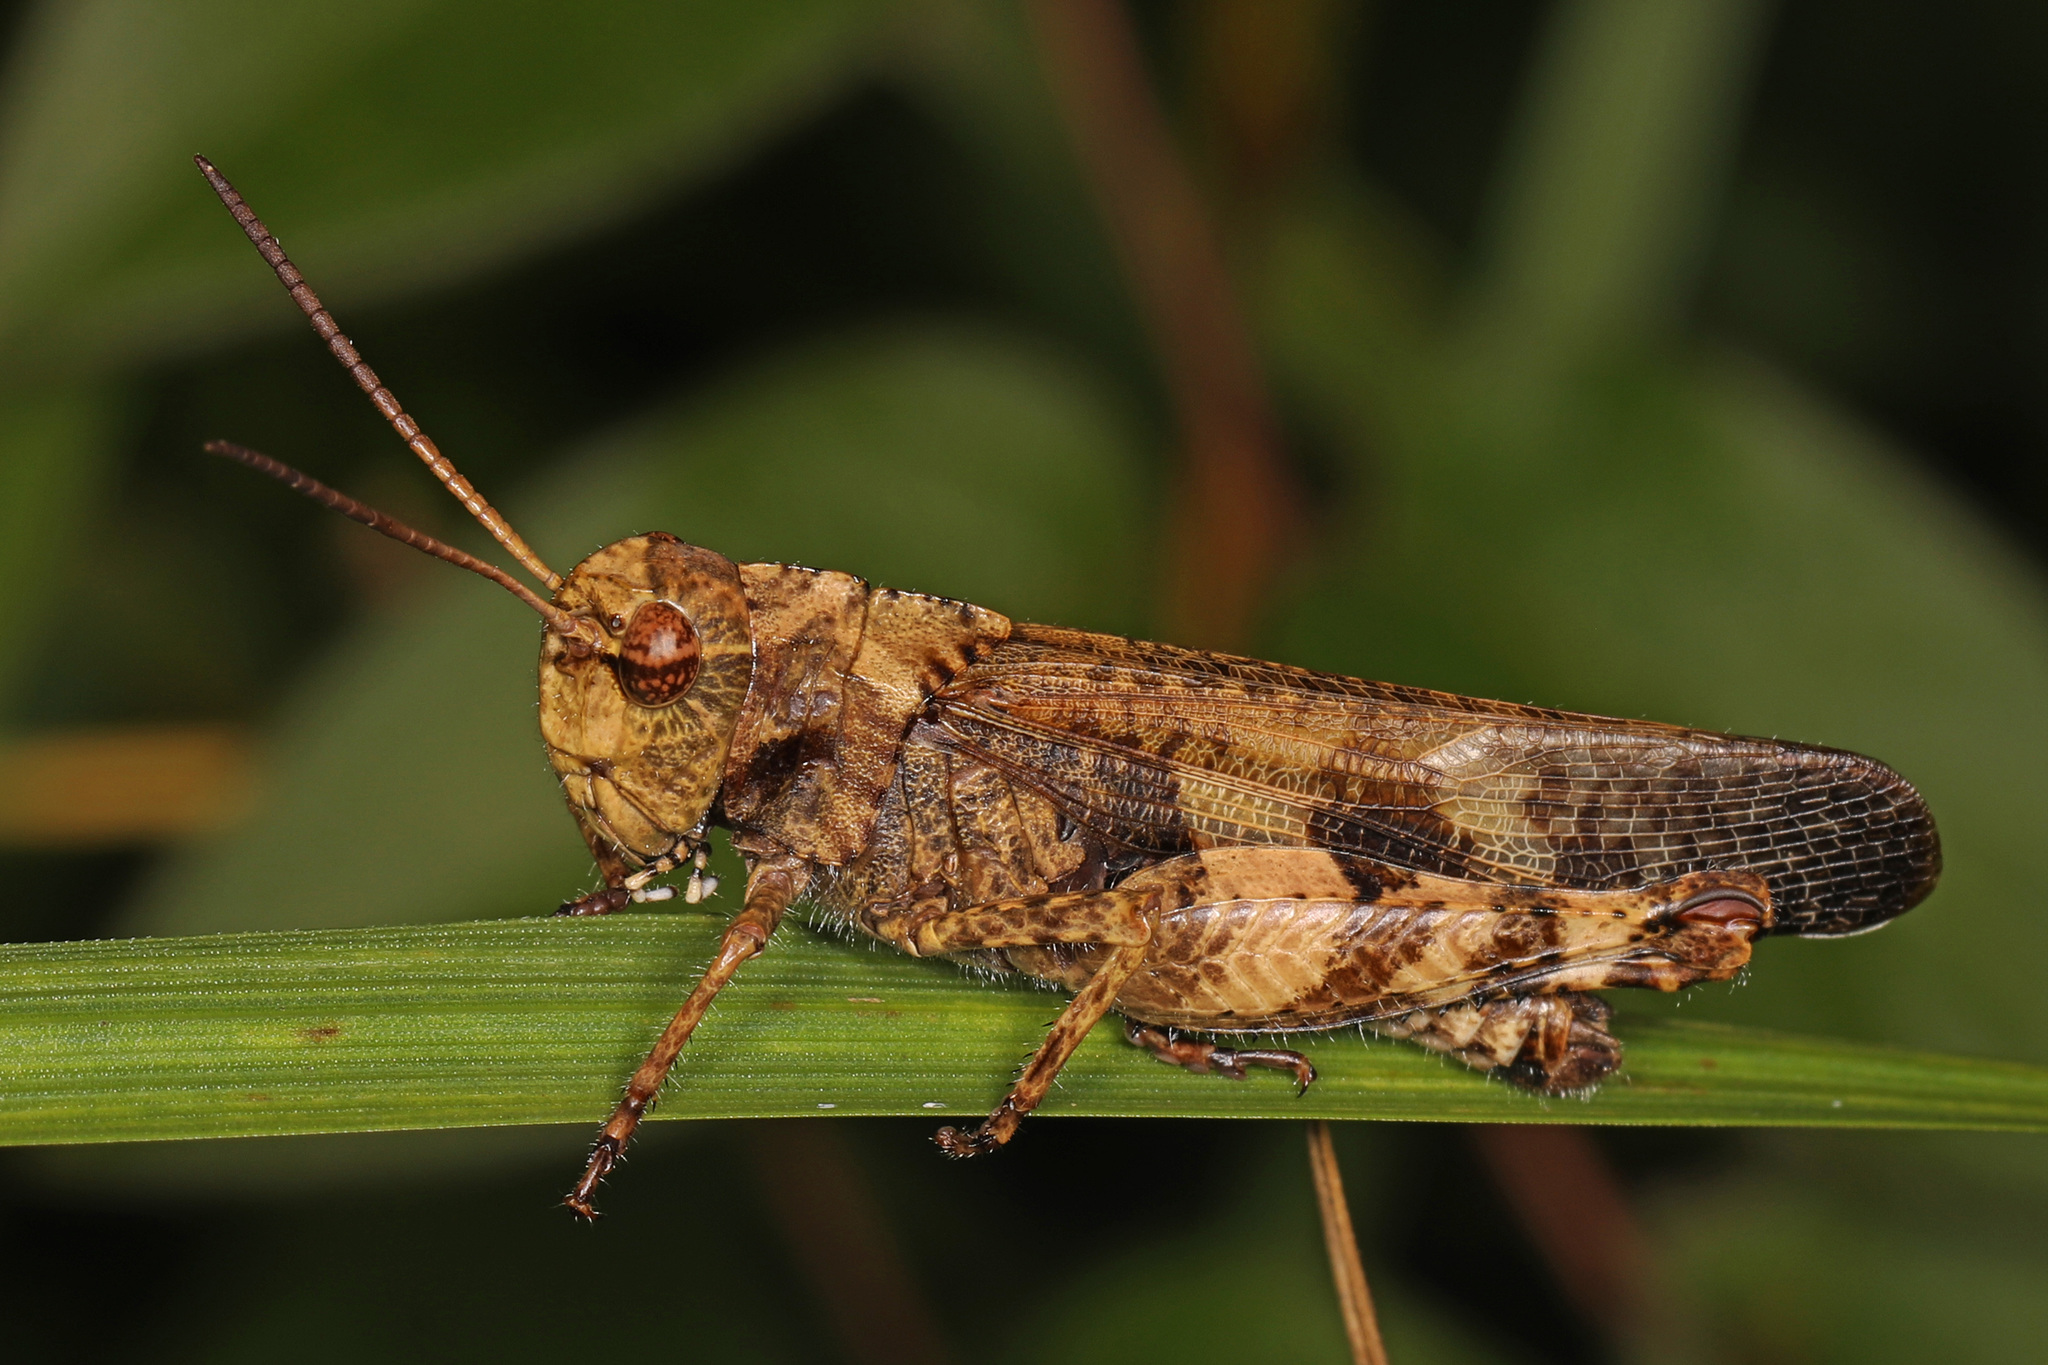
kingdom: Animalia
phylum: Arthropoda
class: Insecta
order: Orthoptera
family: Acrididae
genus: Encoptolophus
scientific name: Encoptolophus sordidus
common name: Dusky grasshopper
